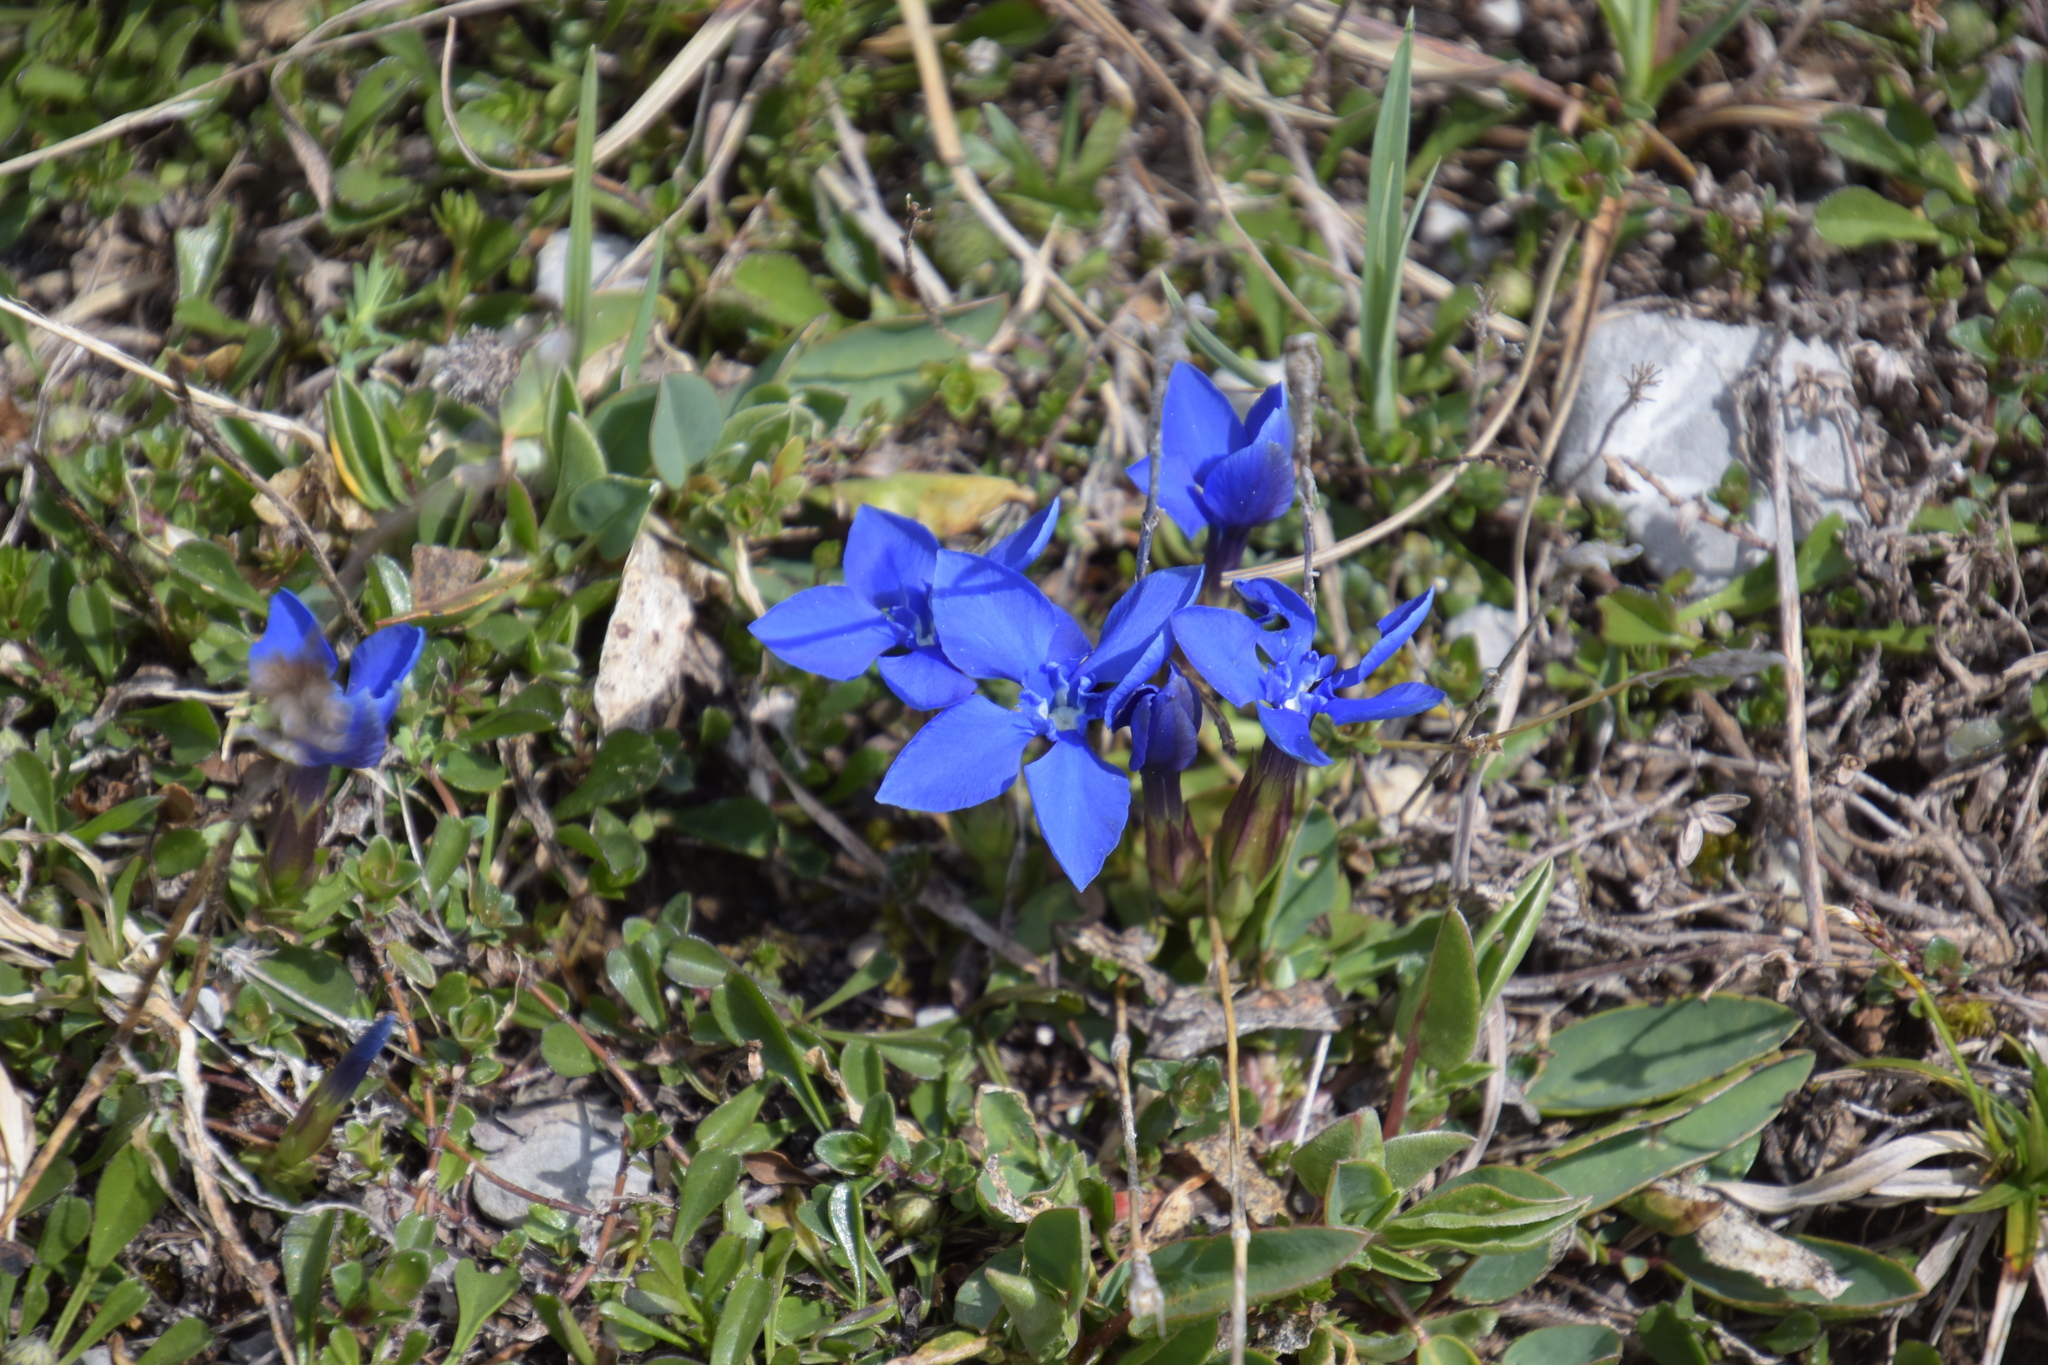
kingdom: Plantae
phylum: Tracheophyta
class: Magnoliopsida
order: Gentianales
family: Gentianaceae
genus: Gentiana
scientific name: Gentiana verna
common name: Spring gentian
